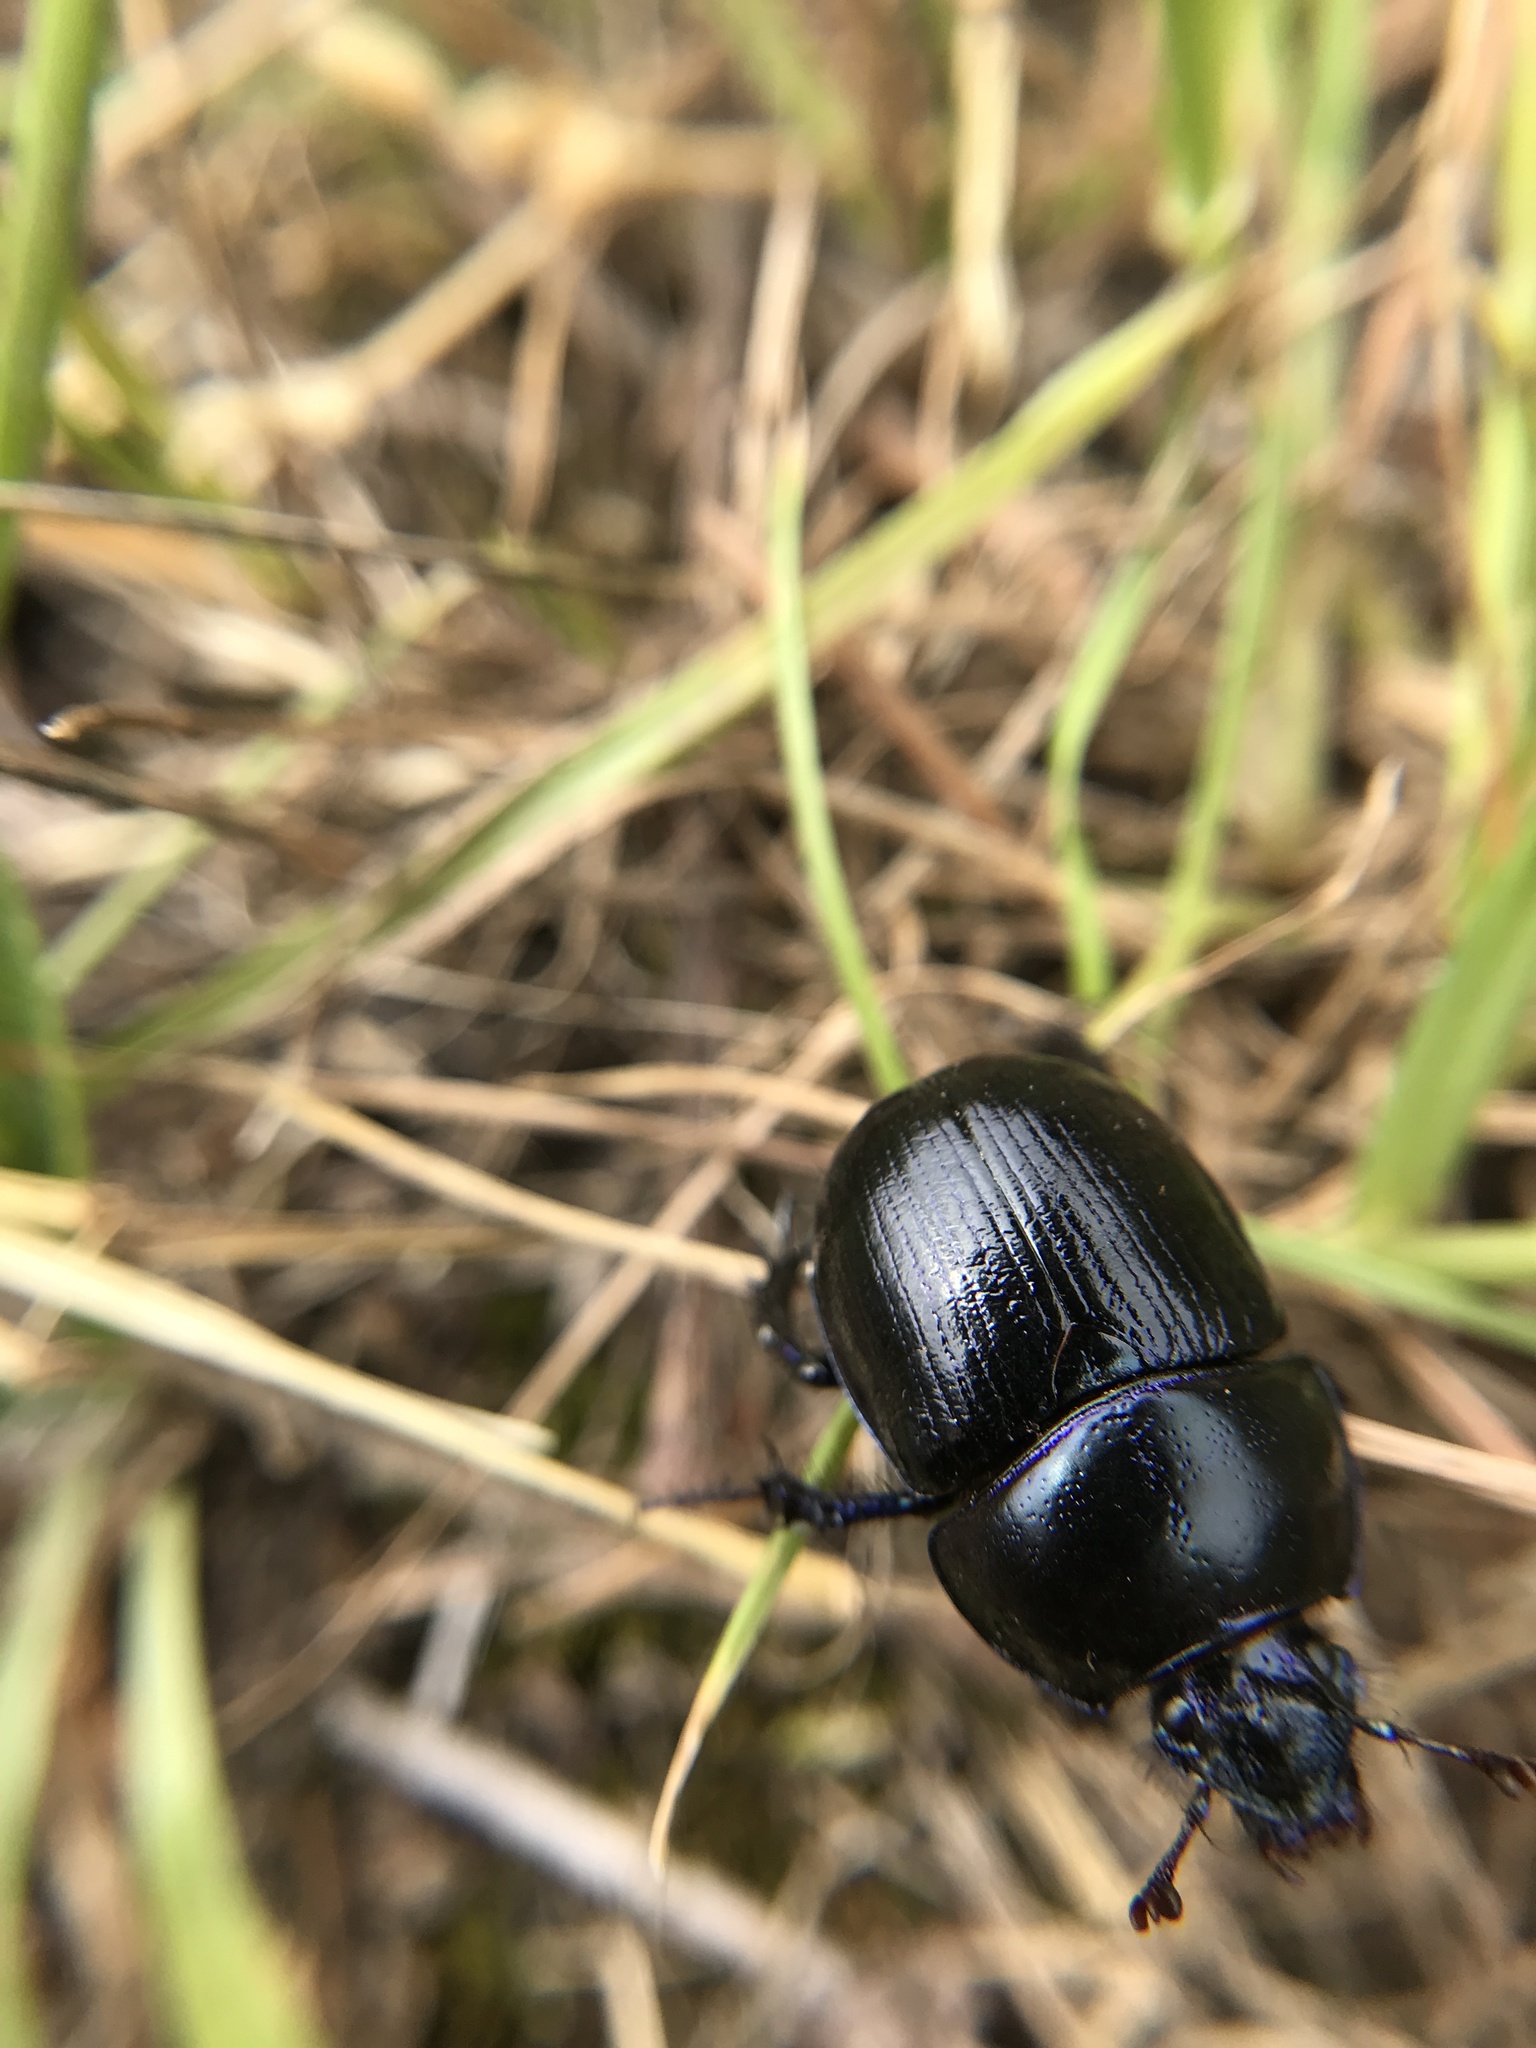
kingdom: Animalia
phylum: Arthropoda
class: Insecta
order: Coleoptera
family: Geotrupidae
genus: Anoplotrupes
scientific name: Anoplotrupes stercorosus
